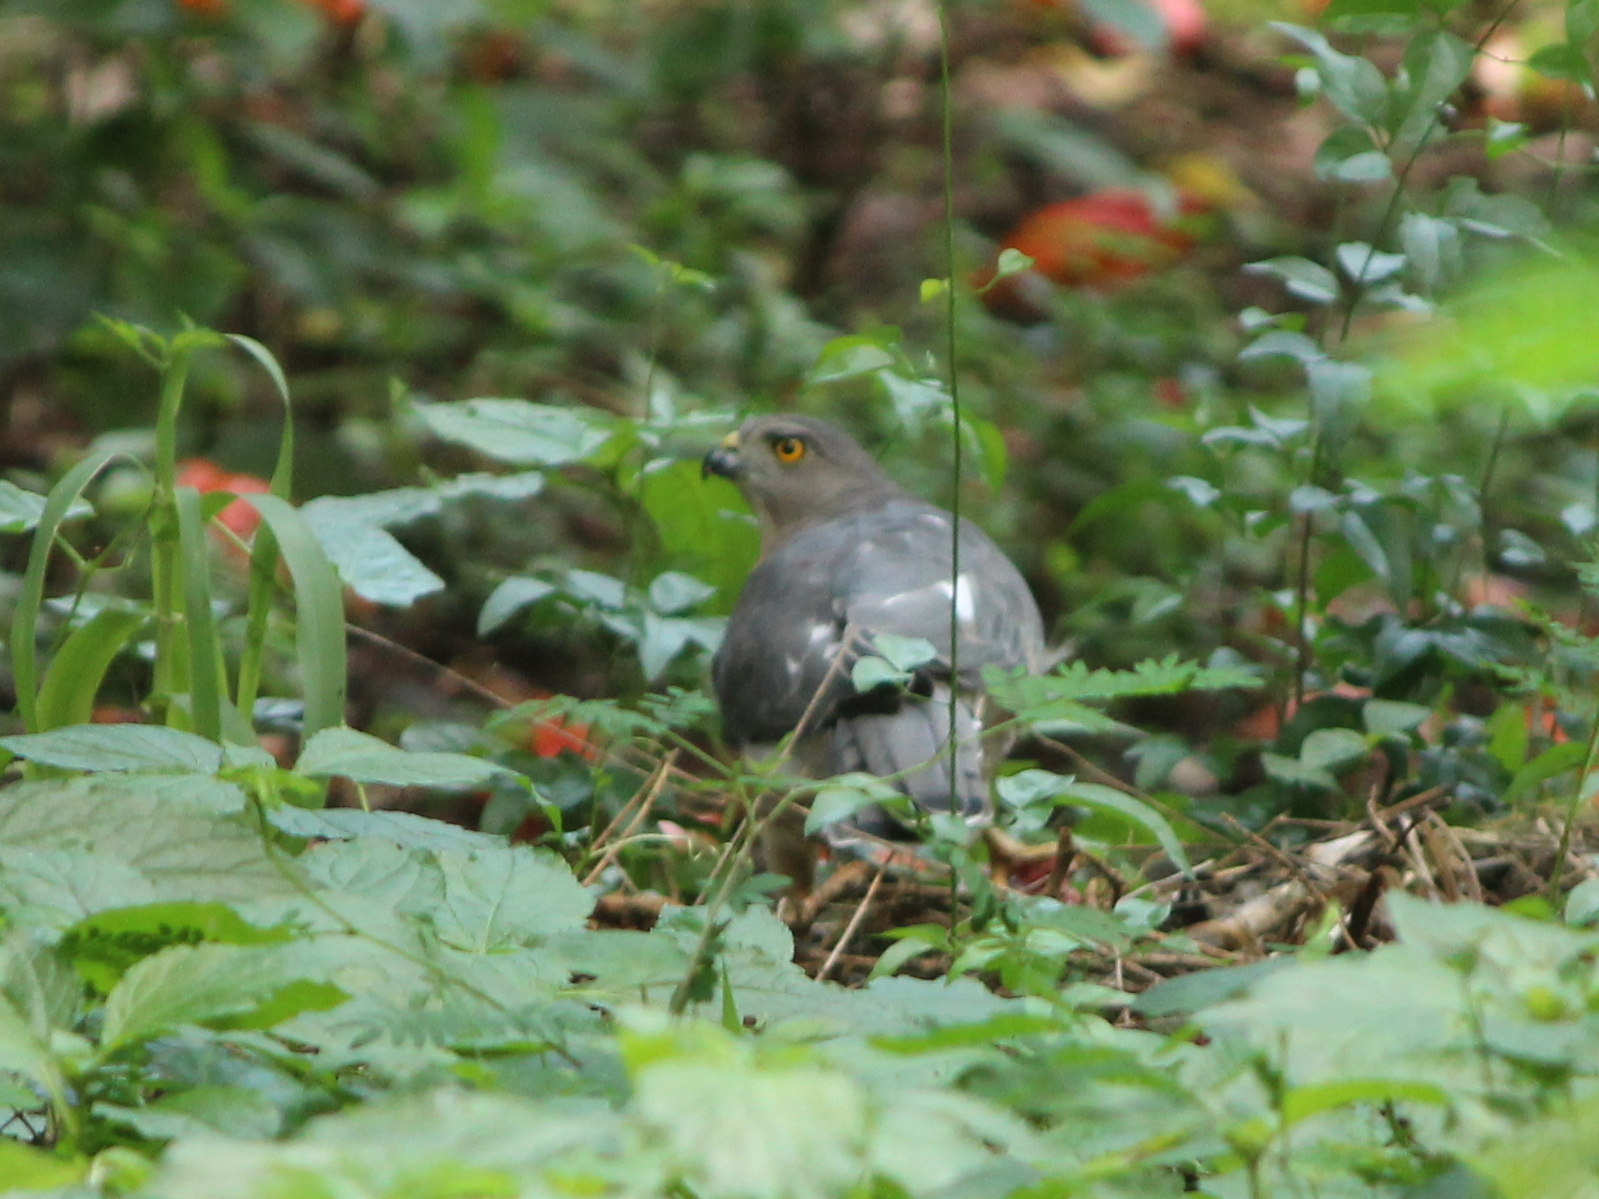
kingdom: Animalia
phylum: Chordata
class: Aves
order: Accipitriformes
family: Accipitridae
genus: Accipiter
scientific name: Accipiter badius
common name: Shikra
